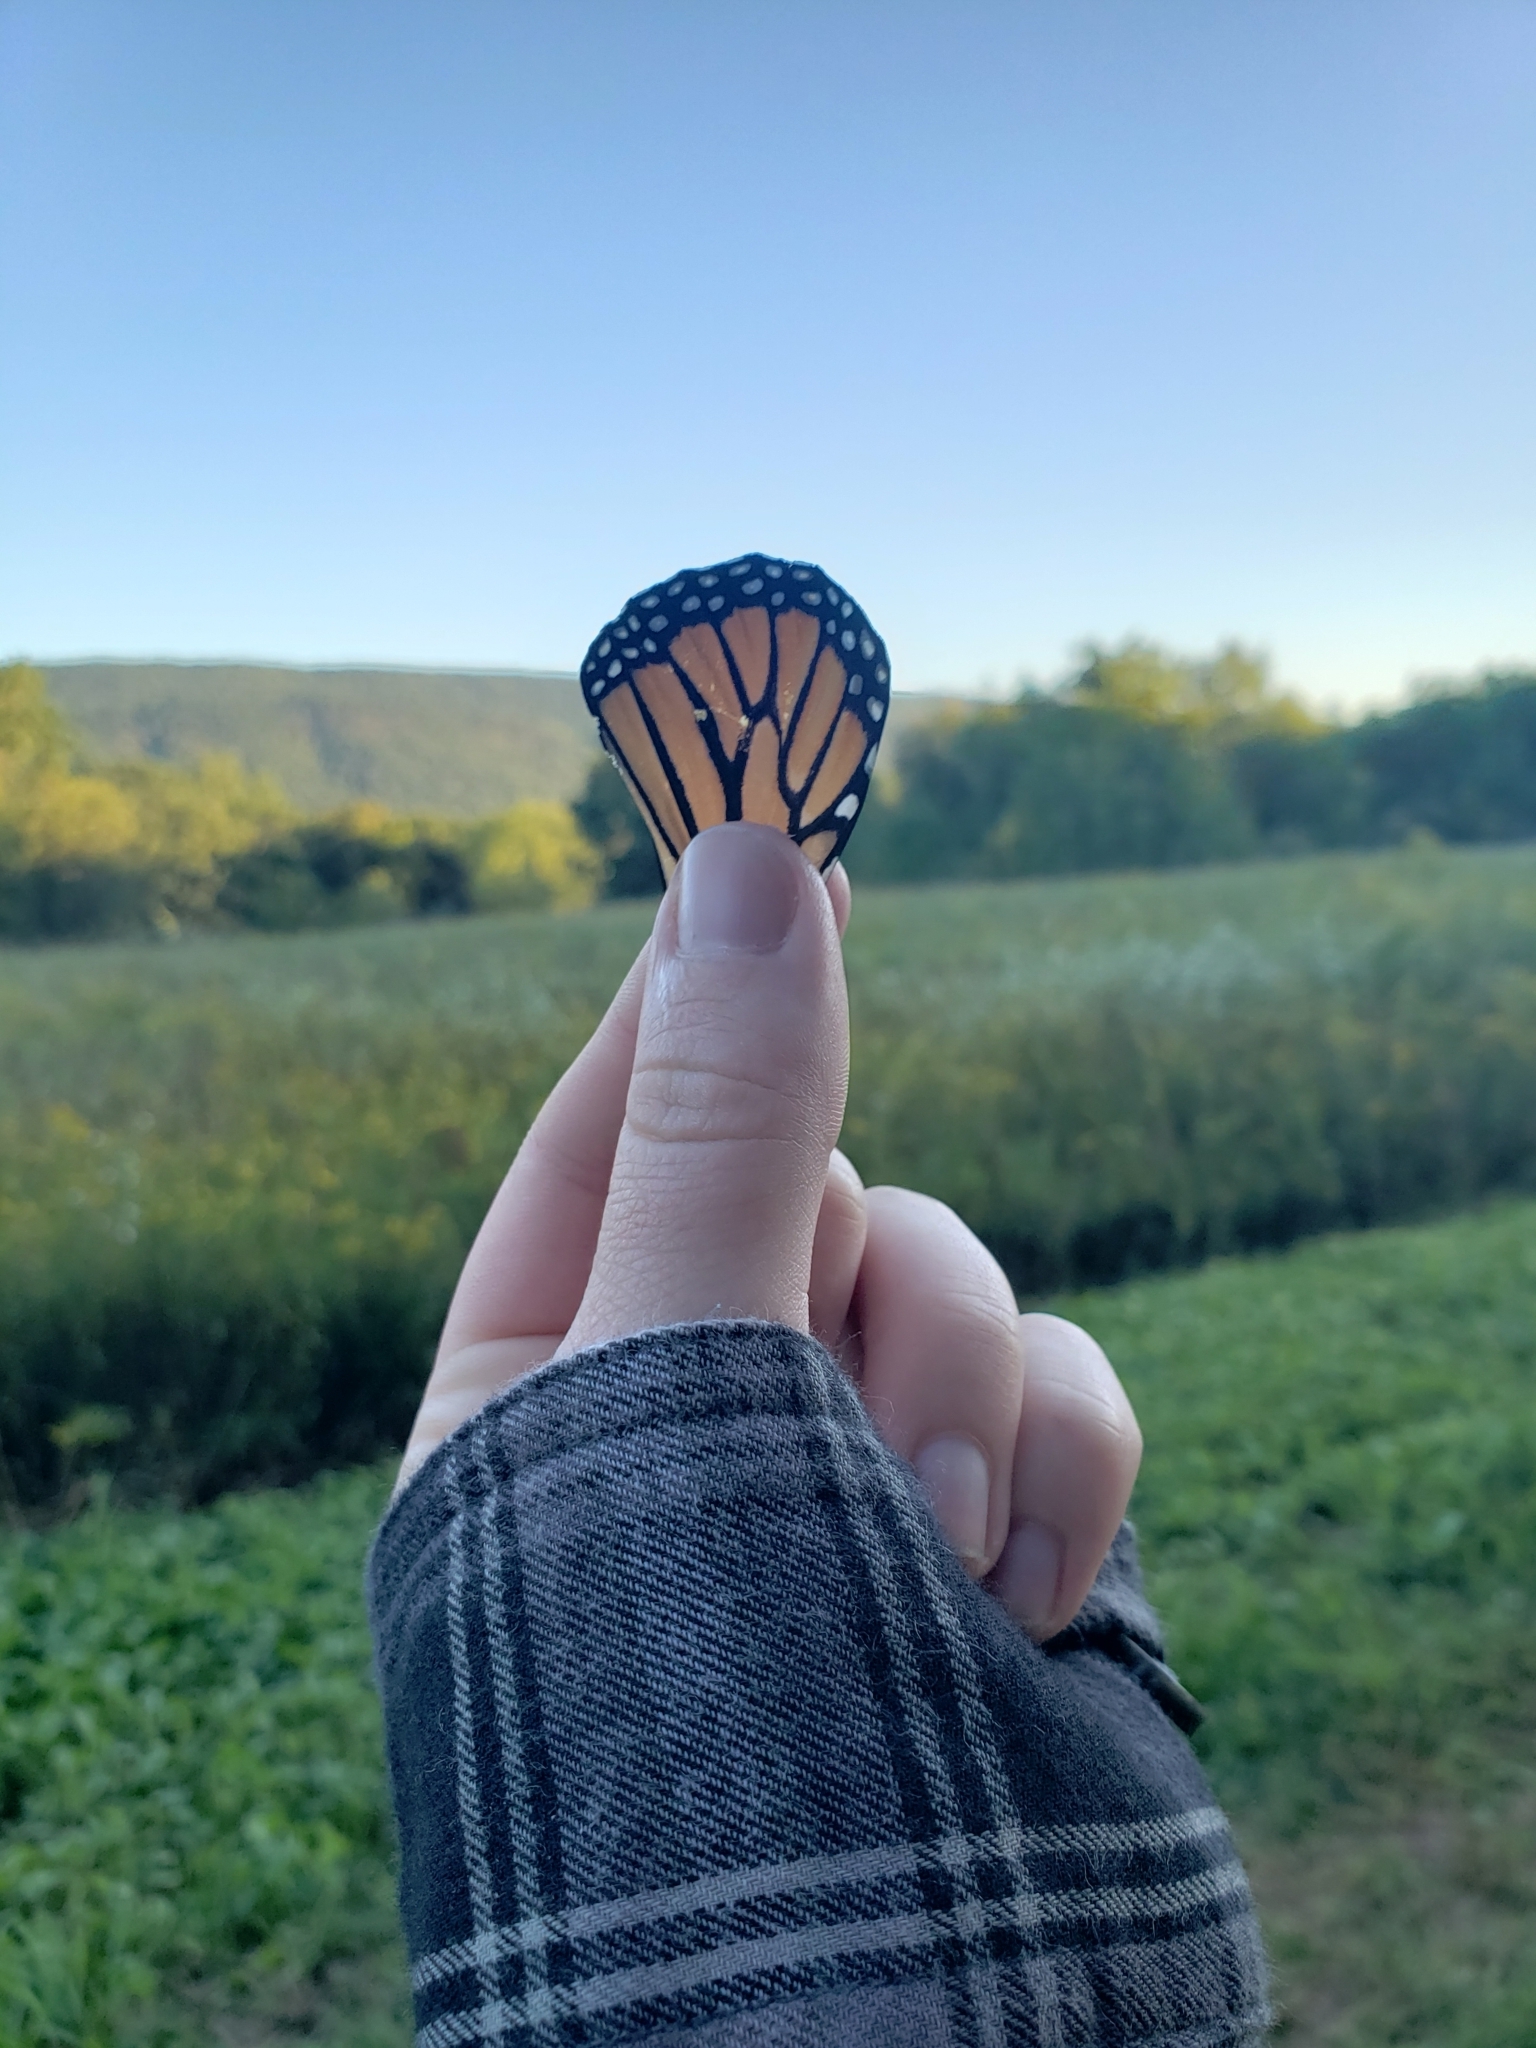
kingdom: Animalia
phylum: Arthropoda
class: Insecta
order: Lepidoptera
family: Nymphalidae
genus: Danaus
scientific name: Danaus plexippus
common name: Monarch
